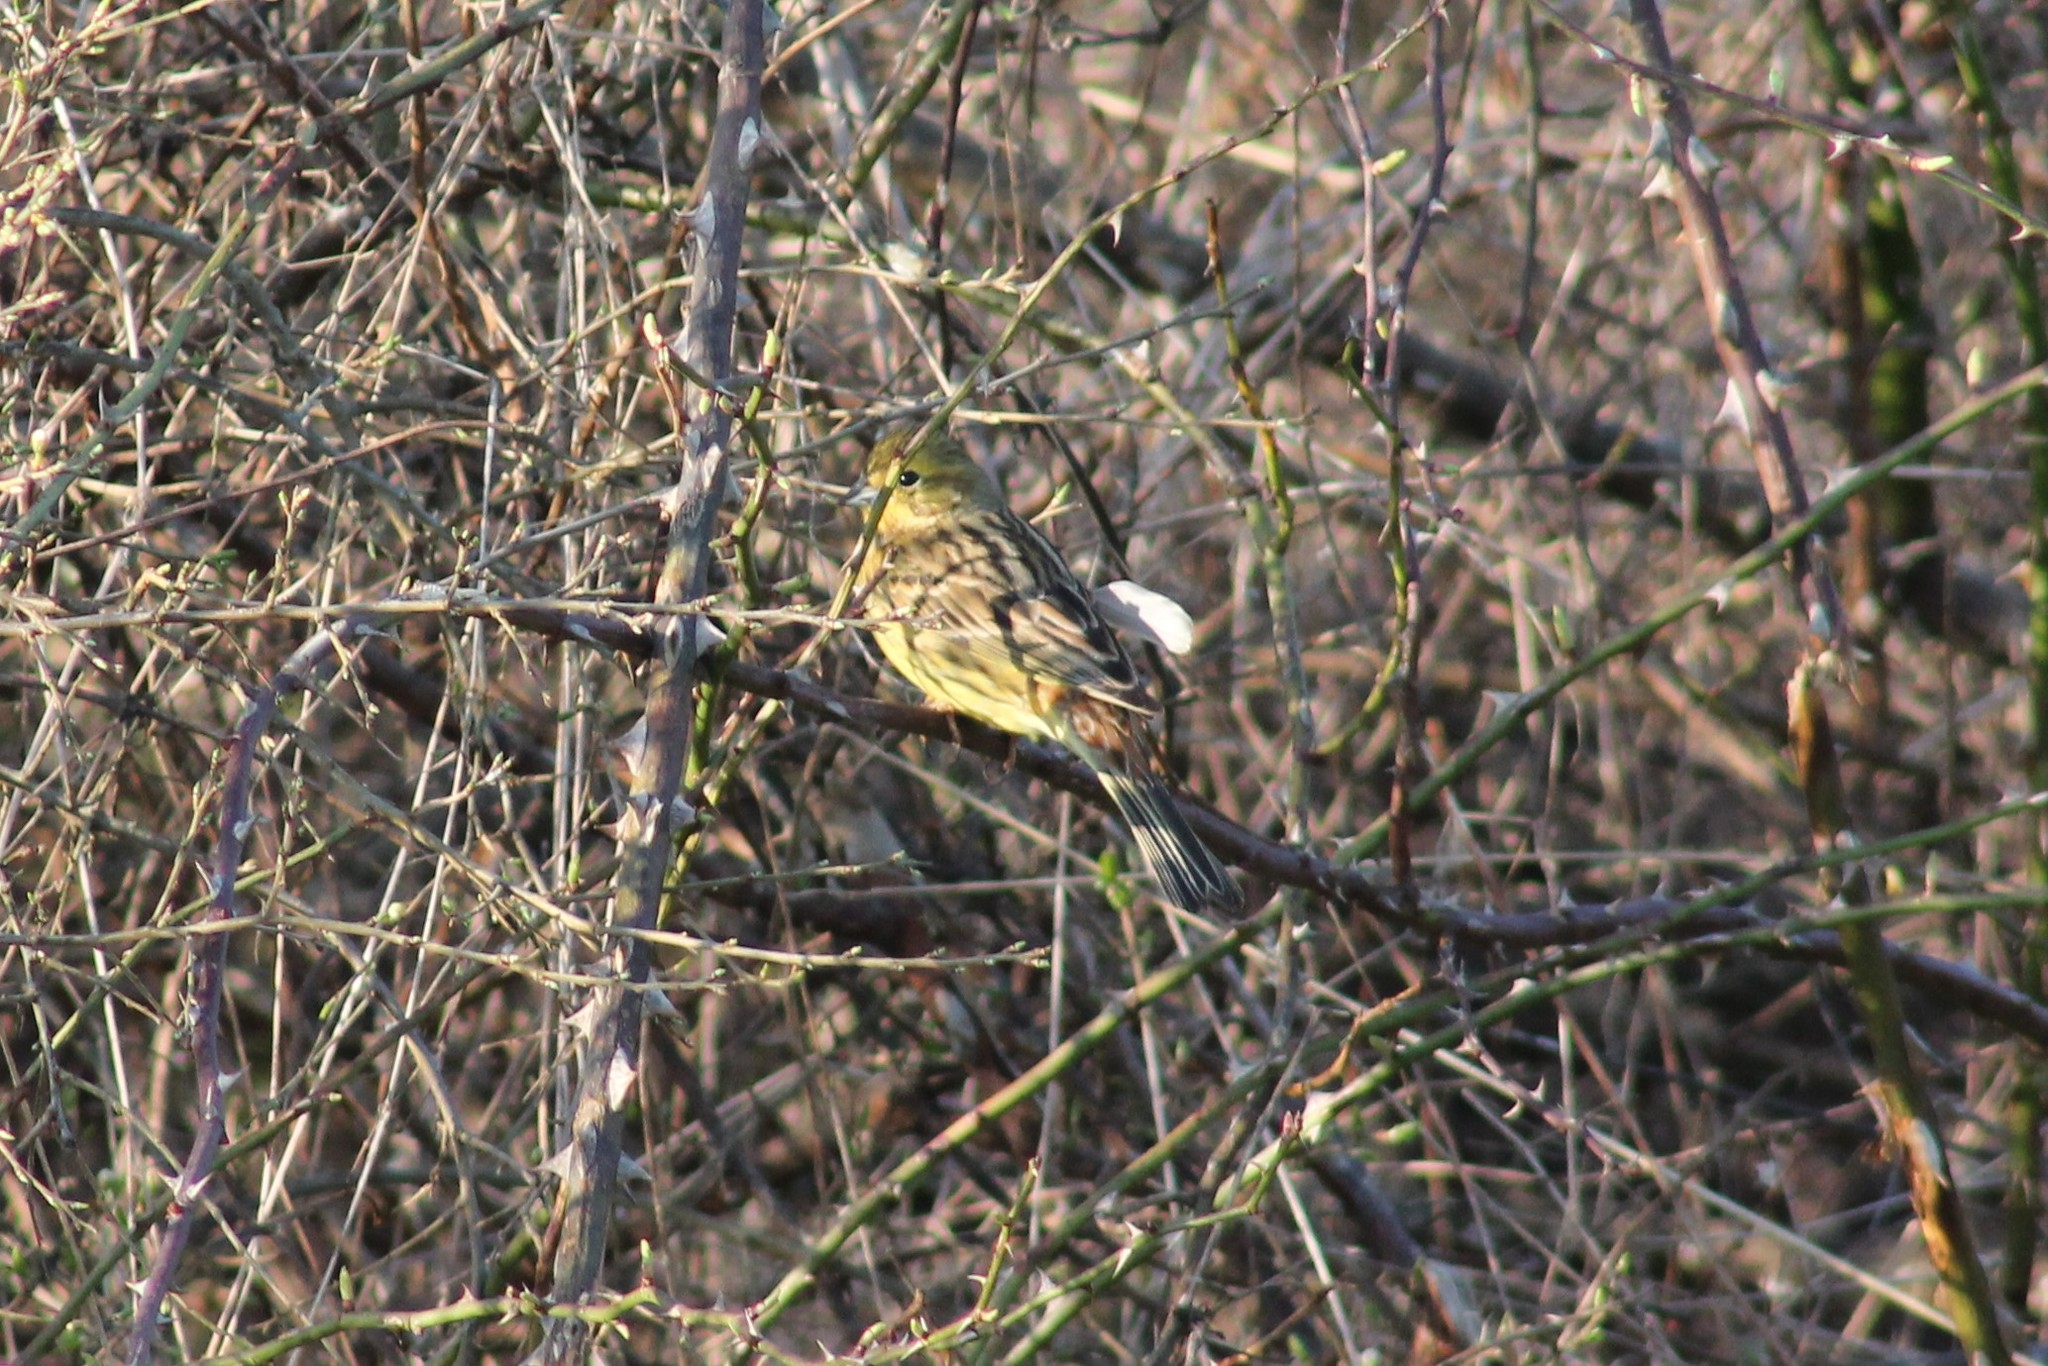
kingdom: Animalia
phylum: Chordata
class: Aves
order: Passeriformes
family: Emberizidae
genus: Emberiza
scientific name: Emberiza citrinella
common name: Yellowhammer
